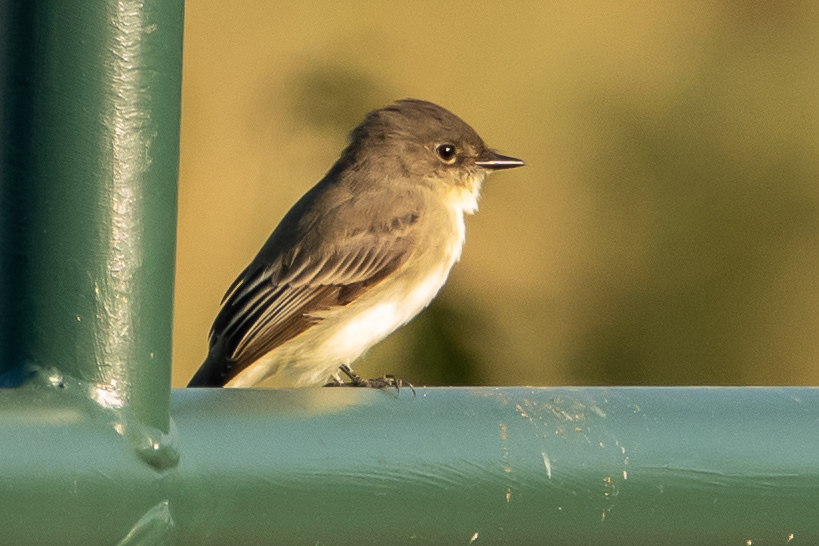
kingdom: Animalia
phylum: Chordata
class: Aves
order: Passeriformes
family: Tyrannidae
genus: Sayornis
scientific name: Sayornis phoebe
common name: Eastern phoebe
